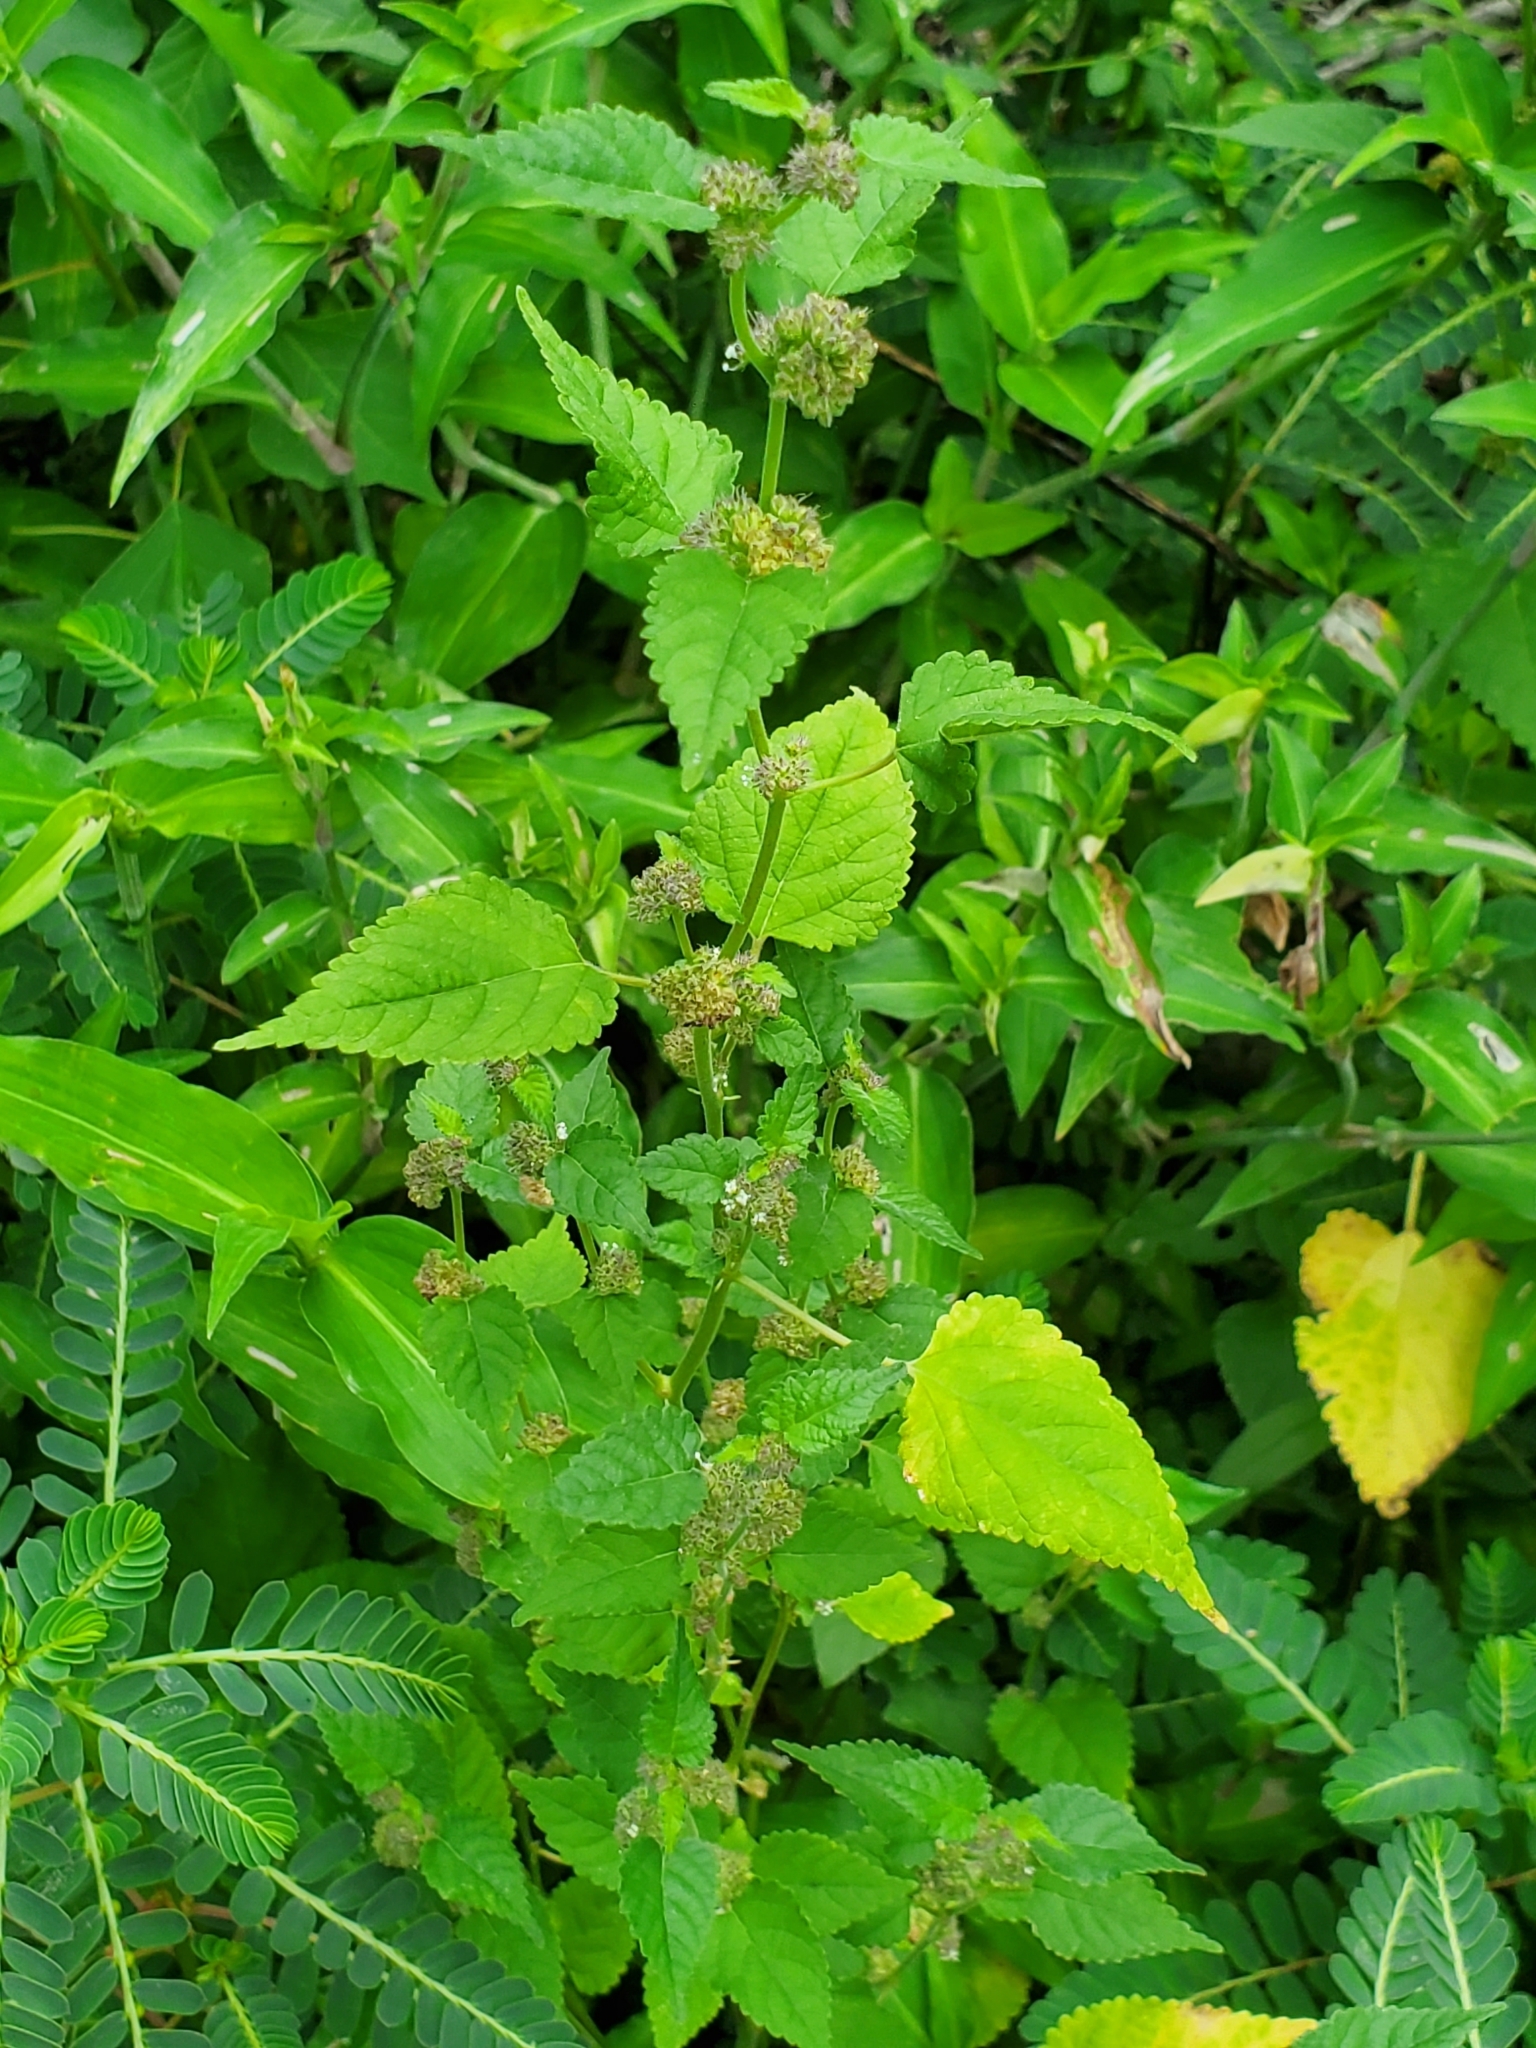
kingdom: Plantae
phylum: Tracheophyta
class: Magnoliopsida
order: Rosales
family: Moraceae
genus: Fatoua
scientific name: Fatoua villosa
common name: Hairy crabweed
